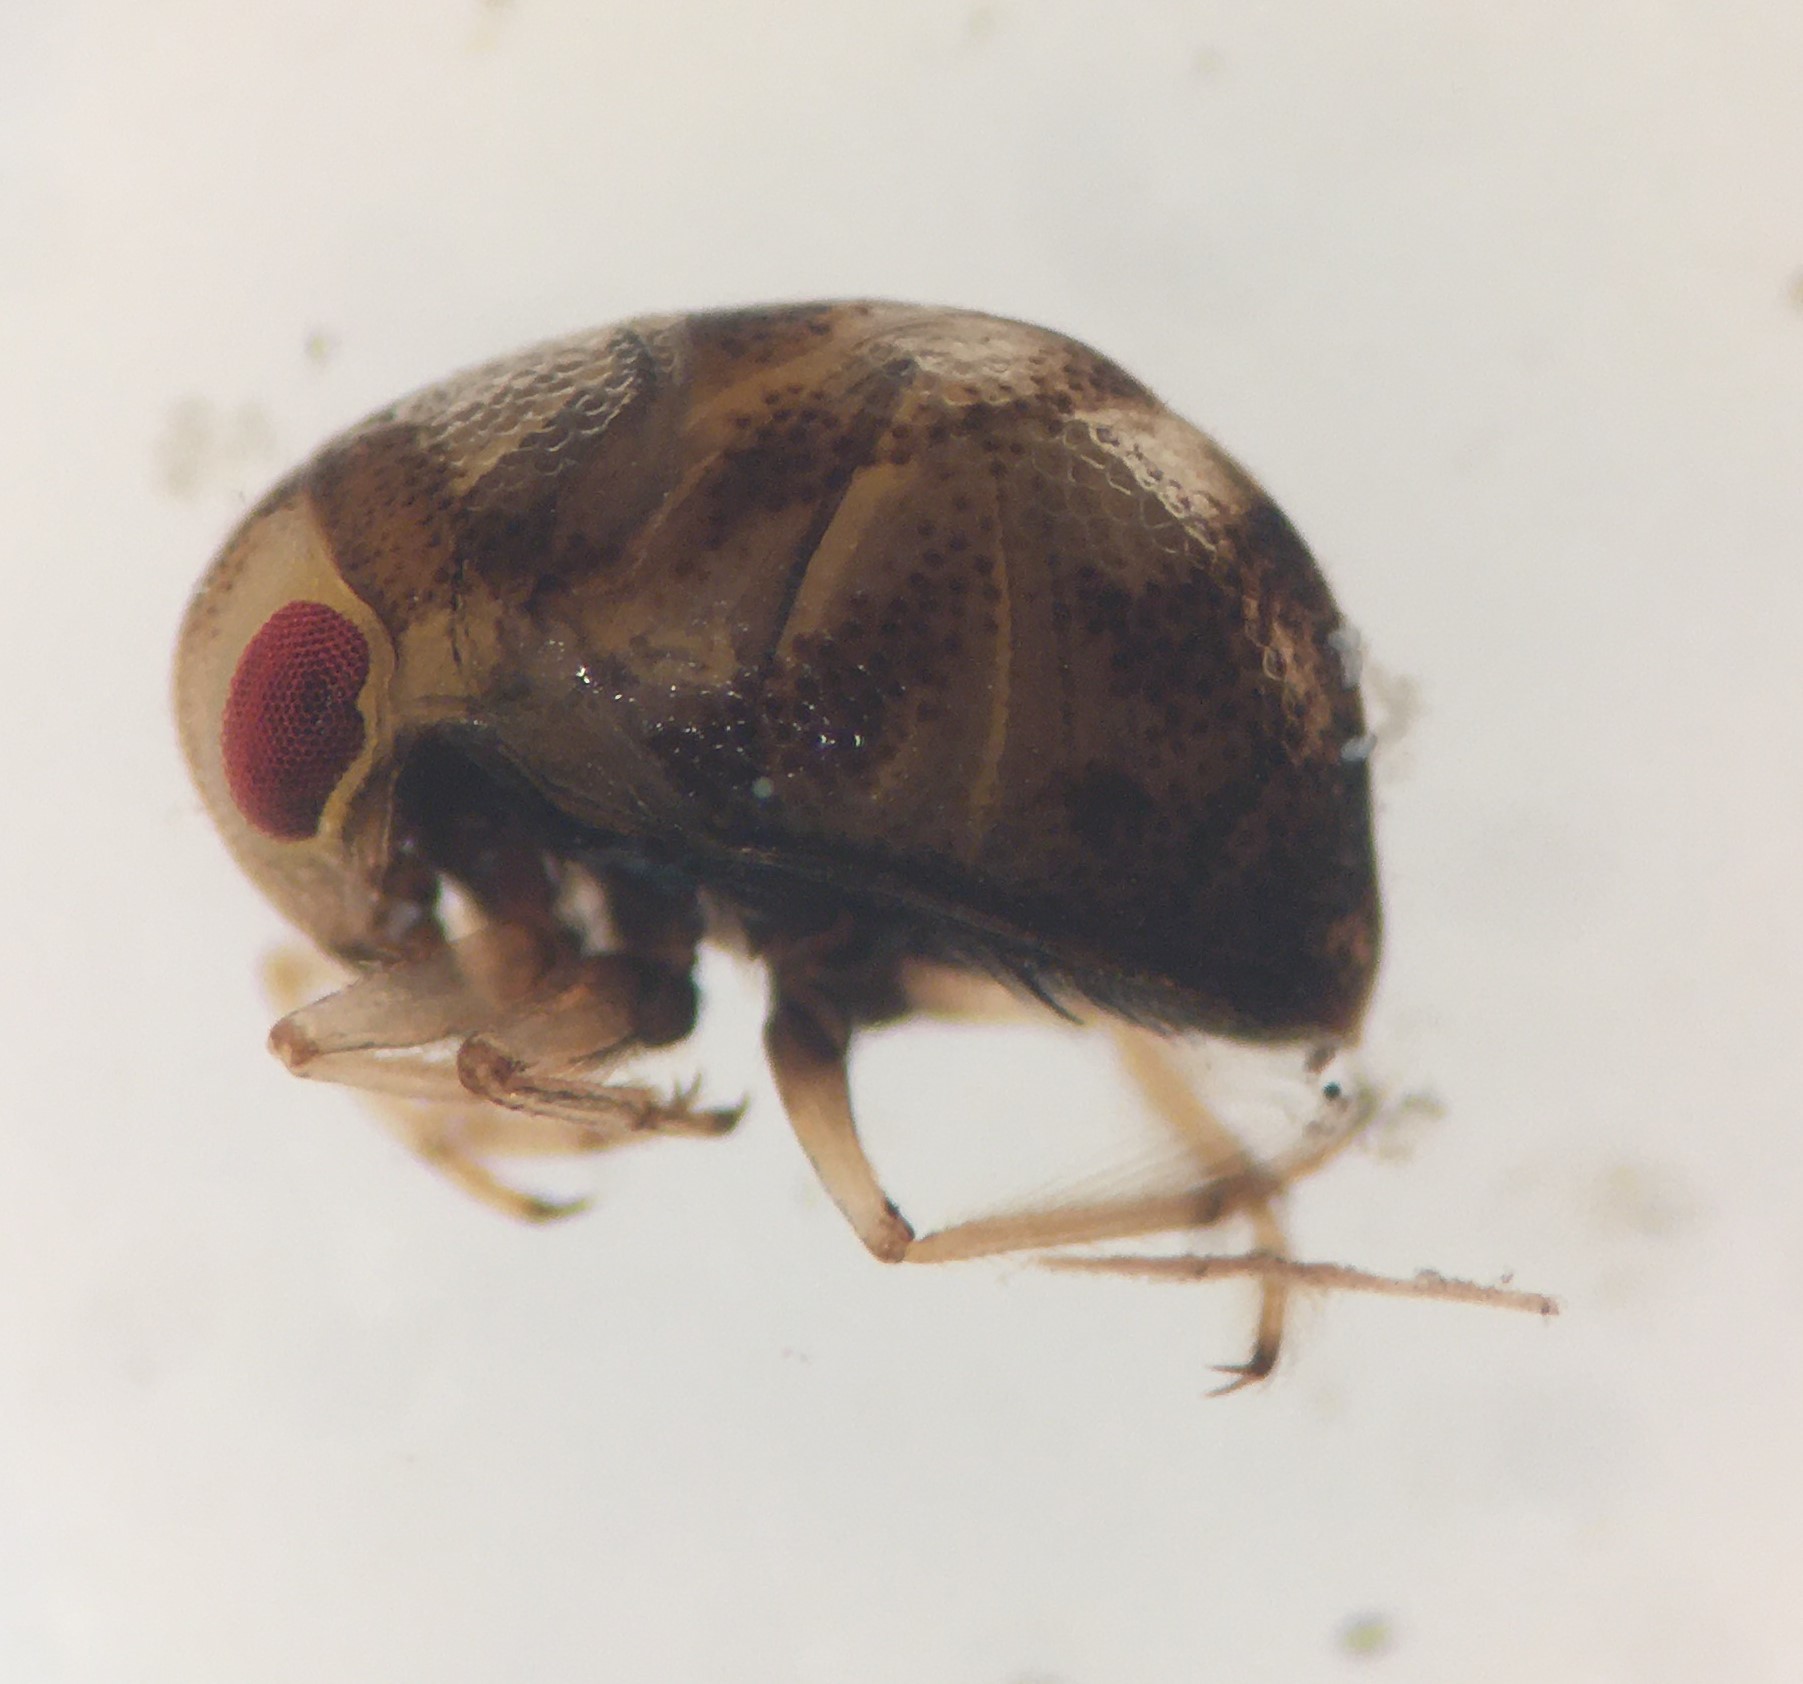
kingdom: Animalia
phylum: Arthropoda
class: Insecta
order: Hemiptera
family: Pleidae
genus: Neoplea
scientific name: Neoplea striola
